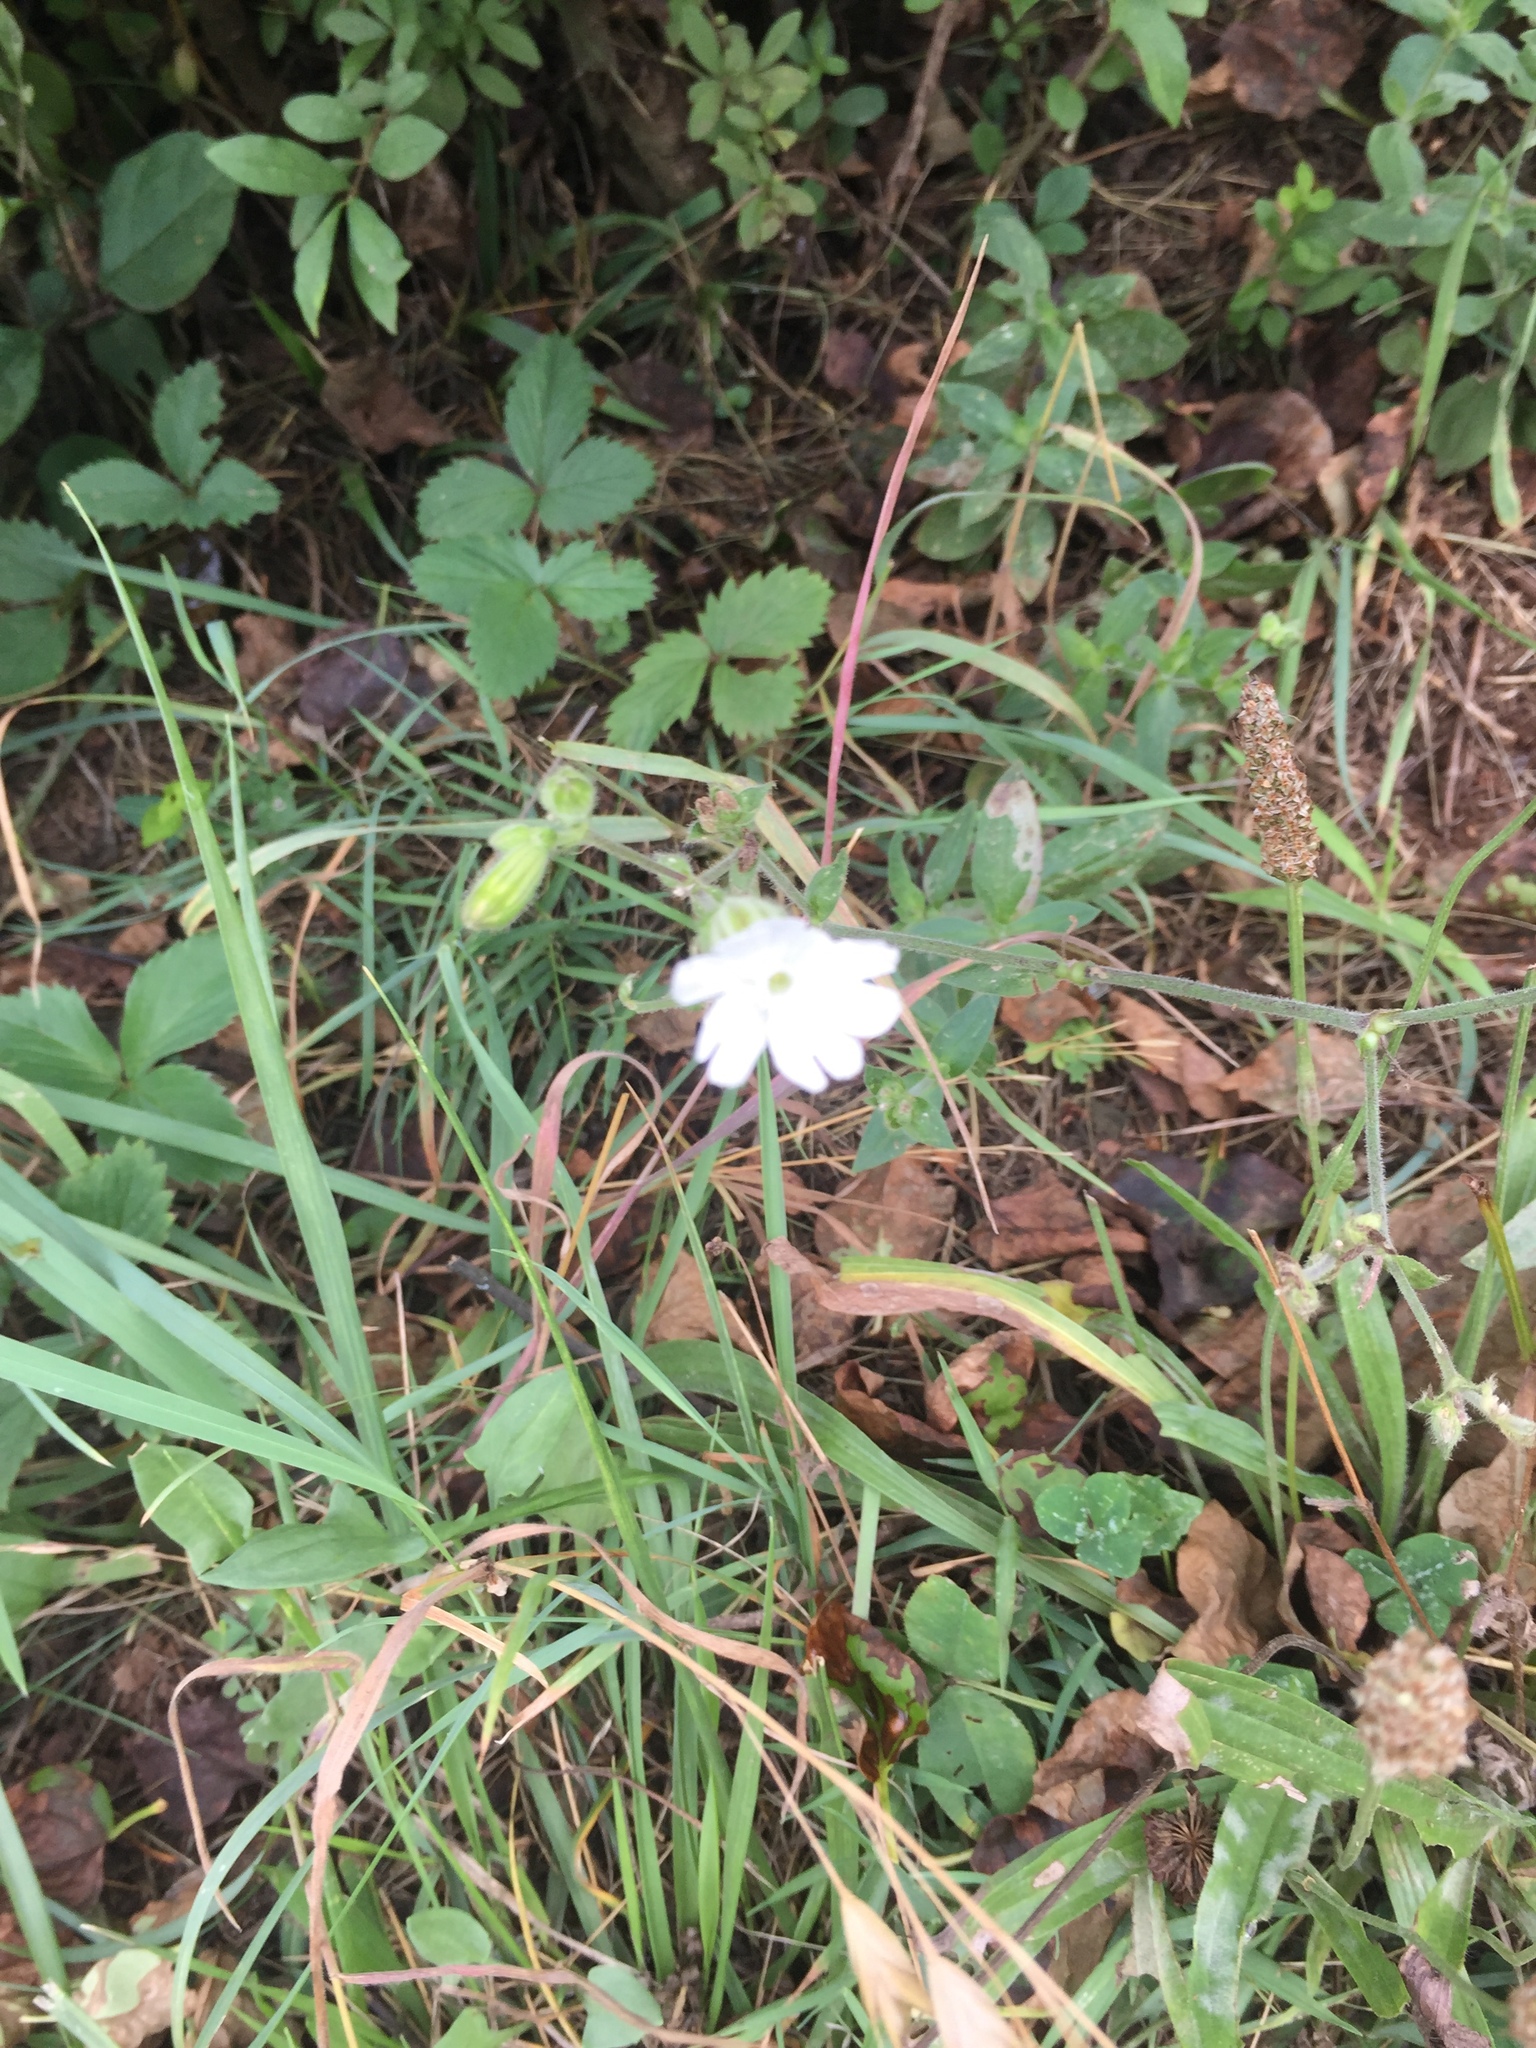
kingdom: Plantae
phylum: Tracheophyta
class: Magnoliopsida
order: Caryophyllales
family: Caryophyllaceae
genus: Silene
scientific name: Silene latifolia
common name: White campion
